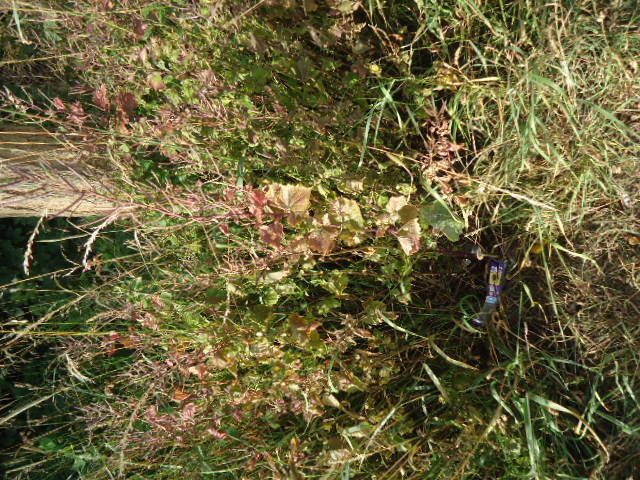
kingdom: Plantae
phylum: Tracheophyta
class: Magnoliopsida
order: Brassicales
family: Brassicaceae
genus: Alliaria
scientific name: Alliaria petiolata
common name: Garlic mustard
